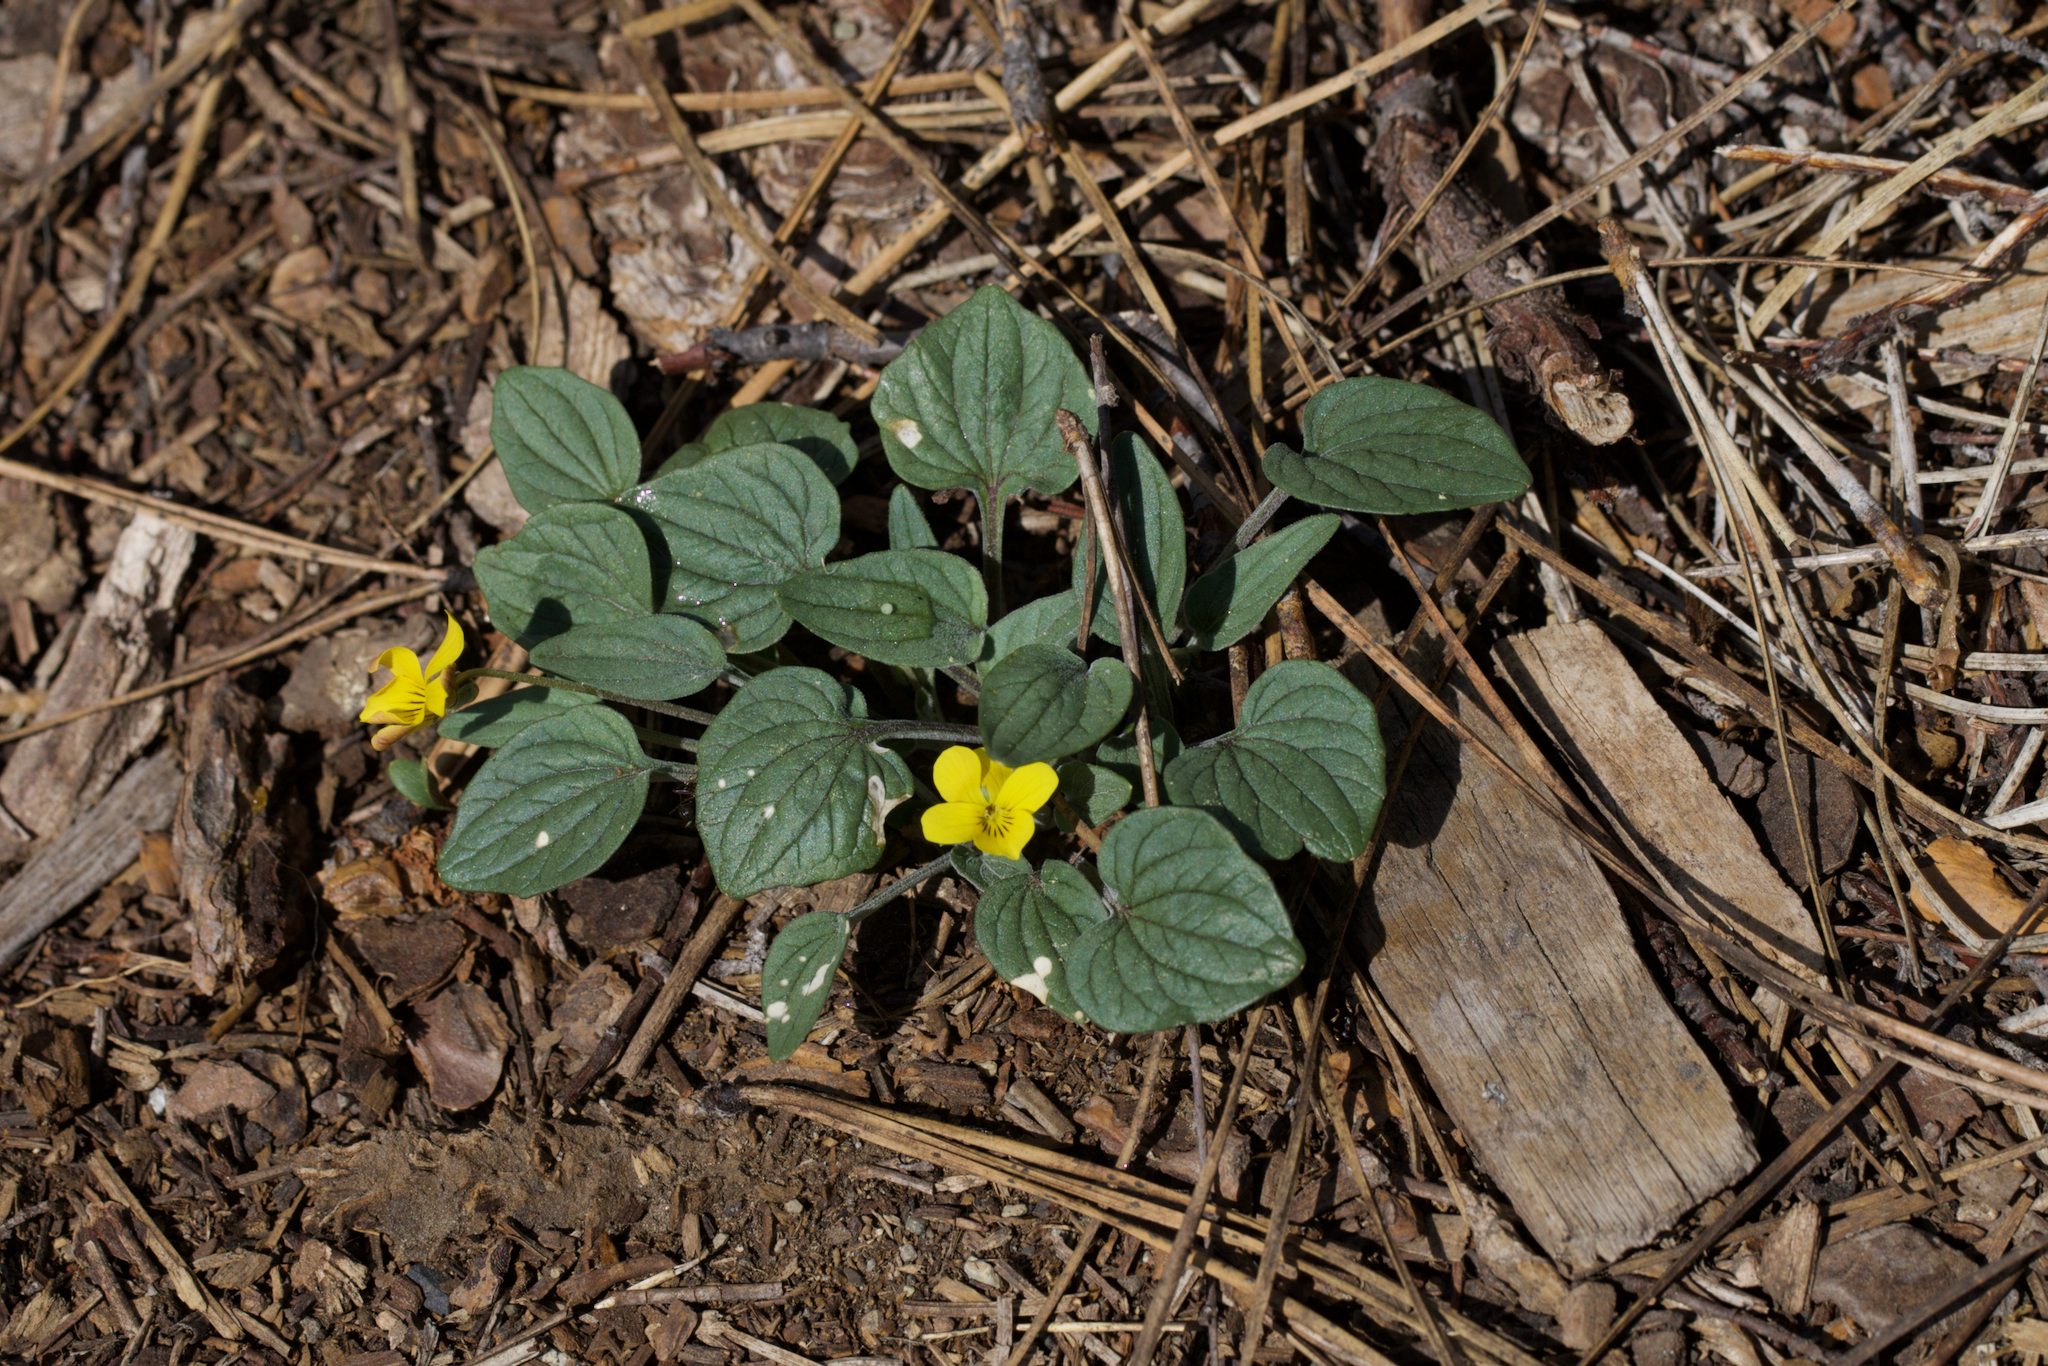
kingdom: Plantae
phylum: Tracheophyta
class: Magnoliopsida
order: Malpighiales
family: Violaceae
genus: Viola
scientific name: Viola purpurea
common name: Pine violet
